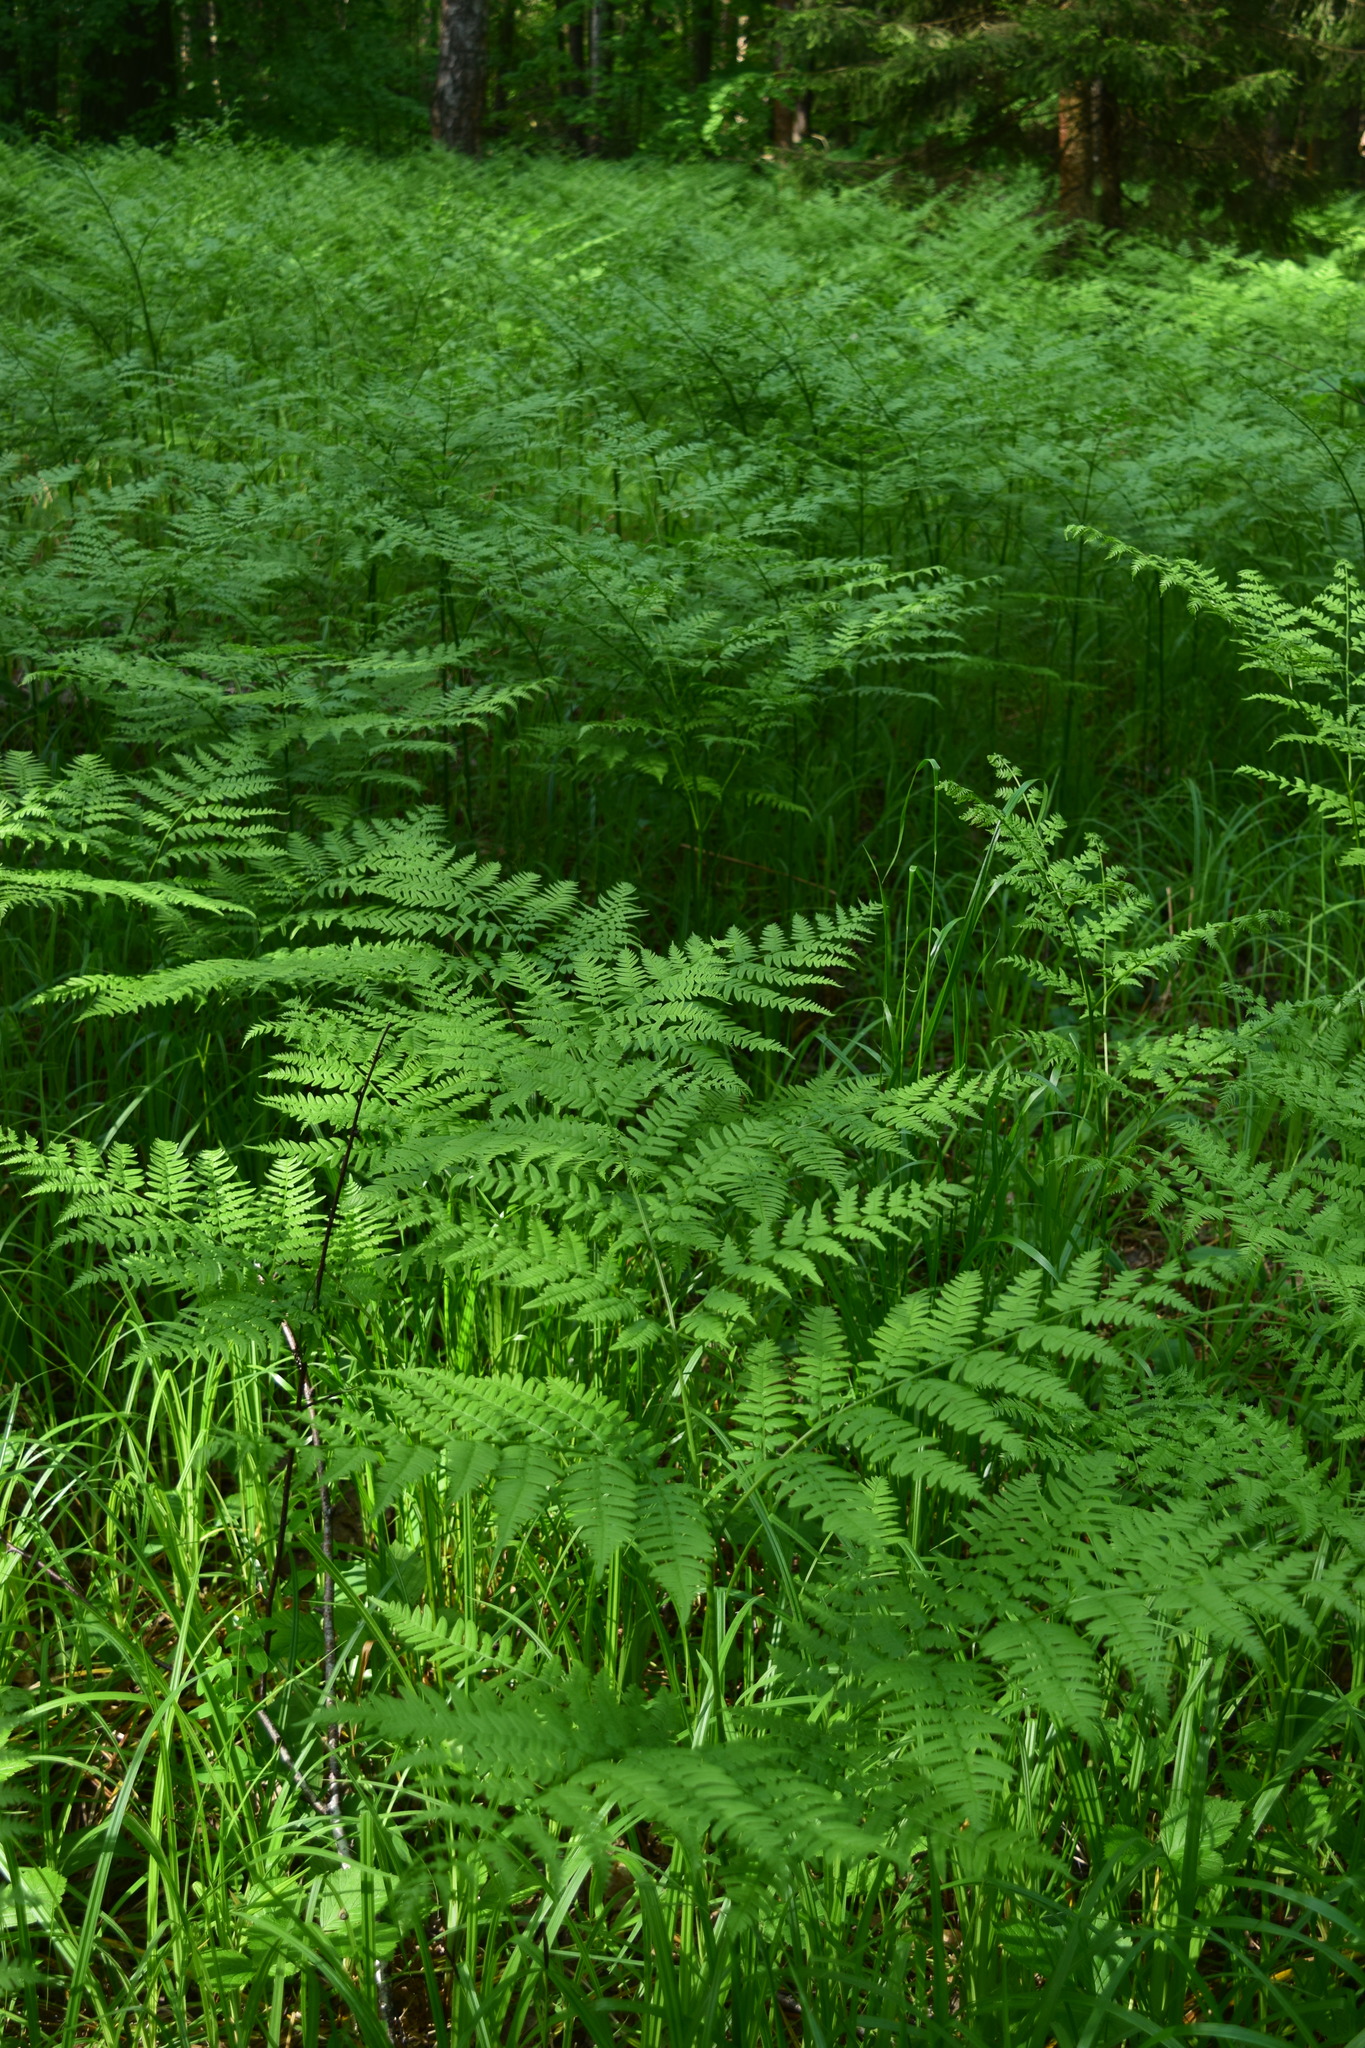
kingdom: Plantae
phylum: Tracheophyta
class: Polypodiopsida
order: Polypodiales
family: Dennstaedtiaceae
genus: Pteridium
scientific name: Pteridium aquilinum
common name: Bracken
